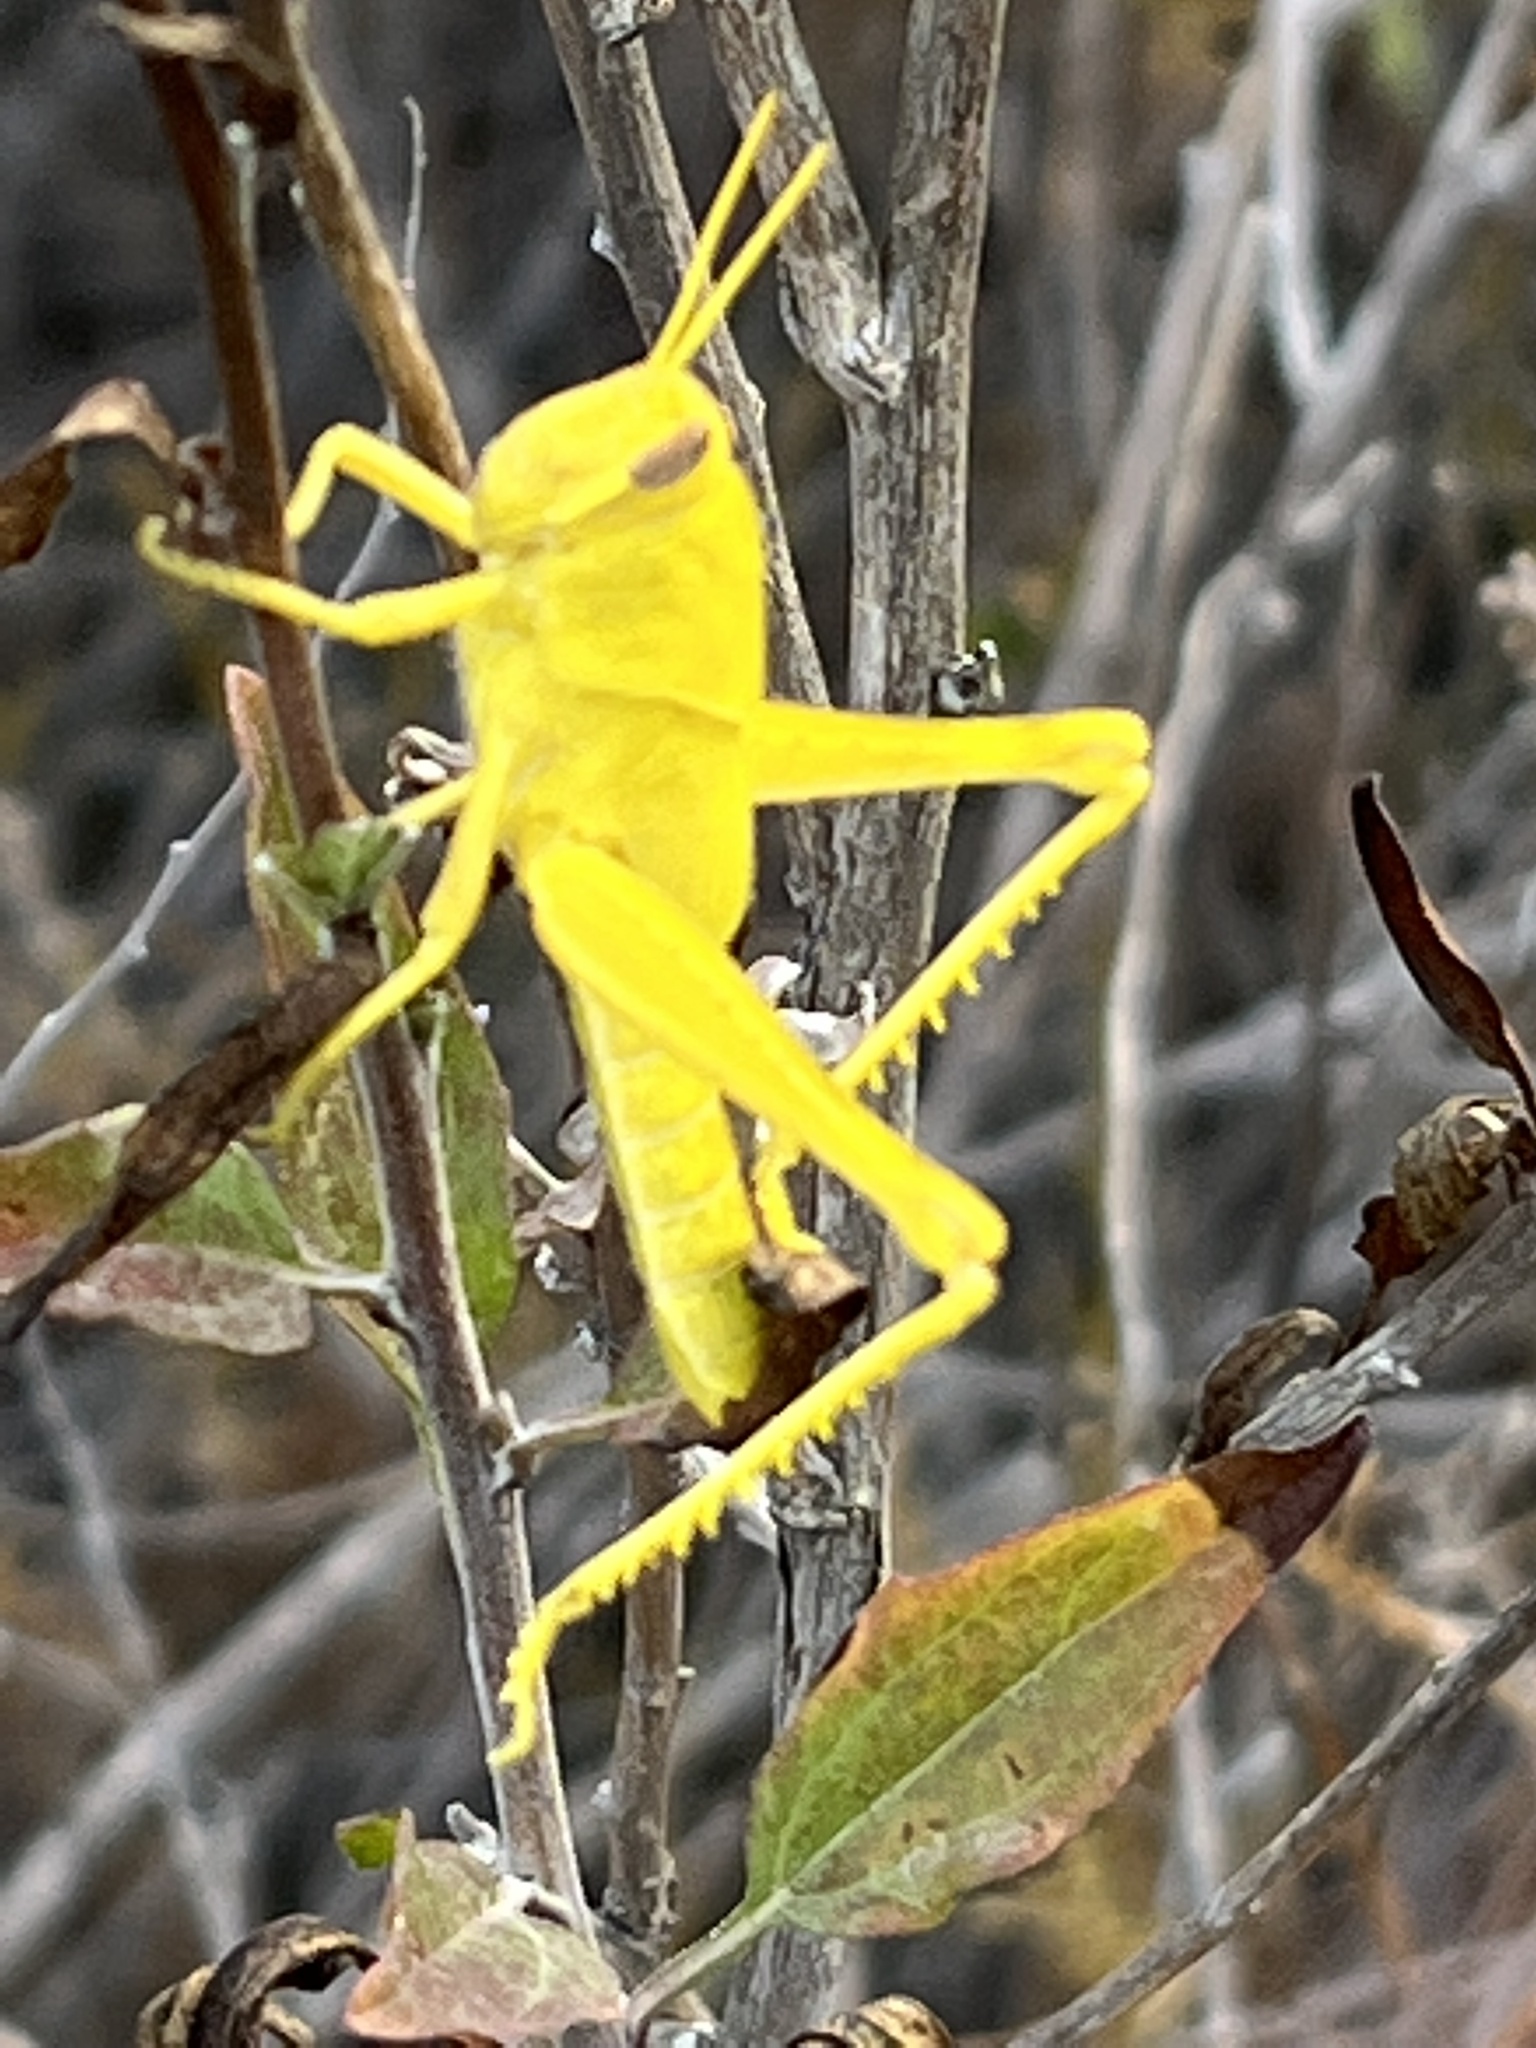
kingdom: Animalia
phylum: Arthropoda
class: Insecta
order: Orthoptera
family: Acrididae
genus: Schistocerca
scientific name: Schistocerca nitens
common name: Vagrant grasshopper
